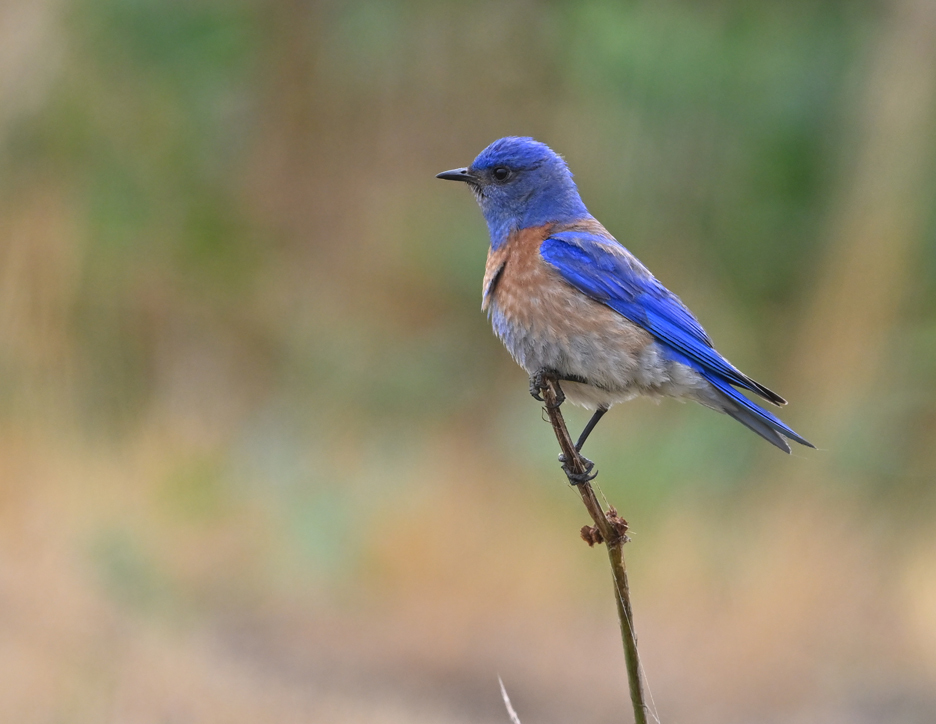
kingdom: Animalia
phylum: Chordata
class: Aves
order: Passeriformes
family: Turdidae
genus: Sialia
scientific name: Sialia mexicana
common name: Western bluebird
